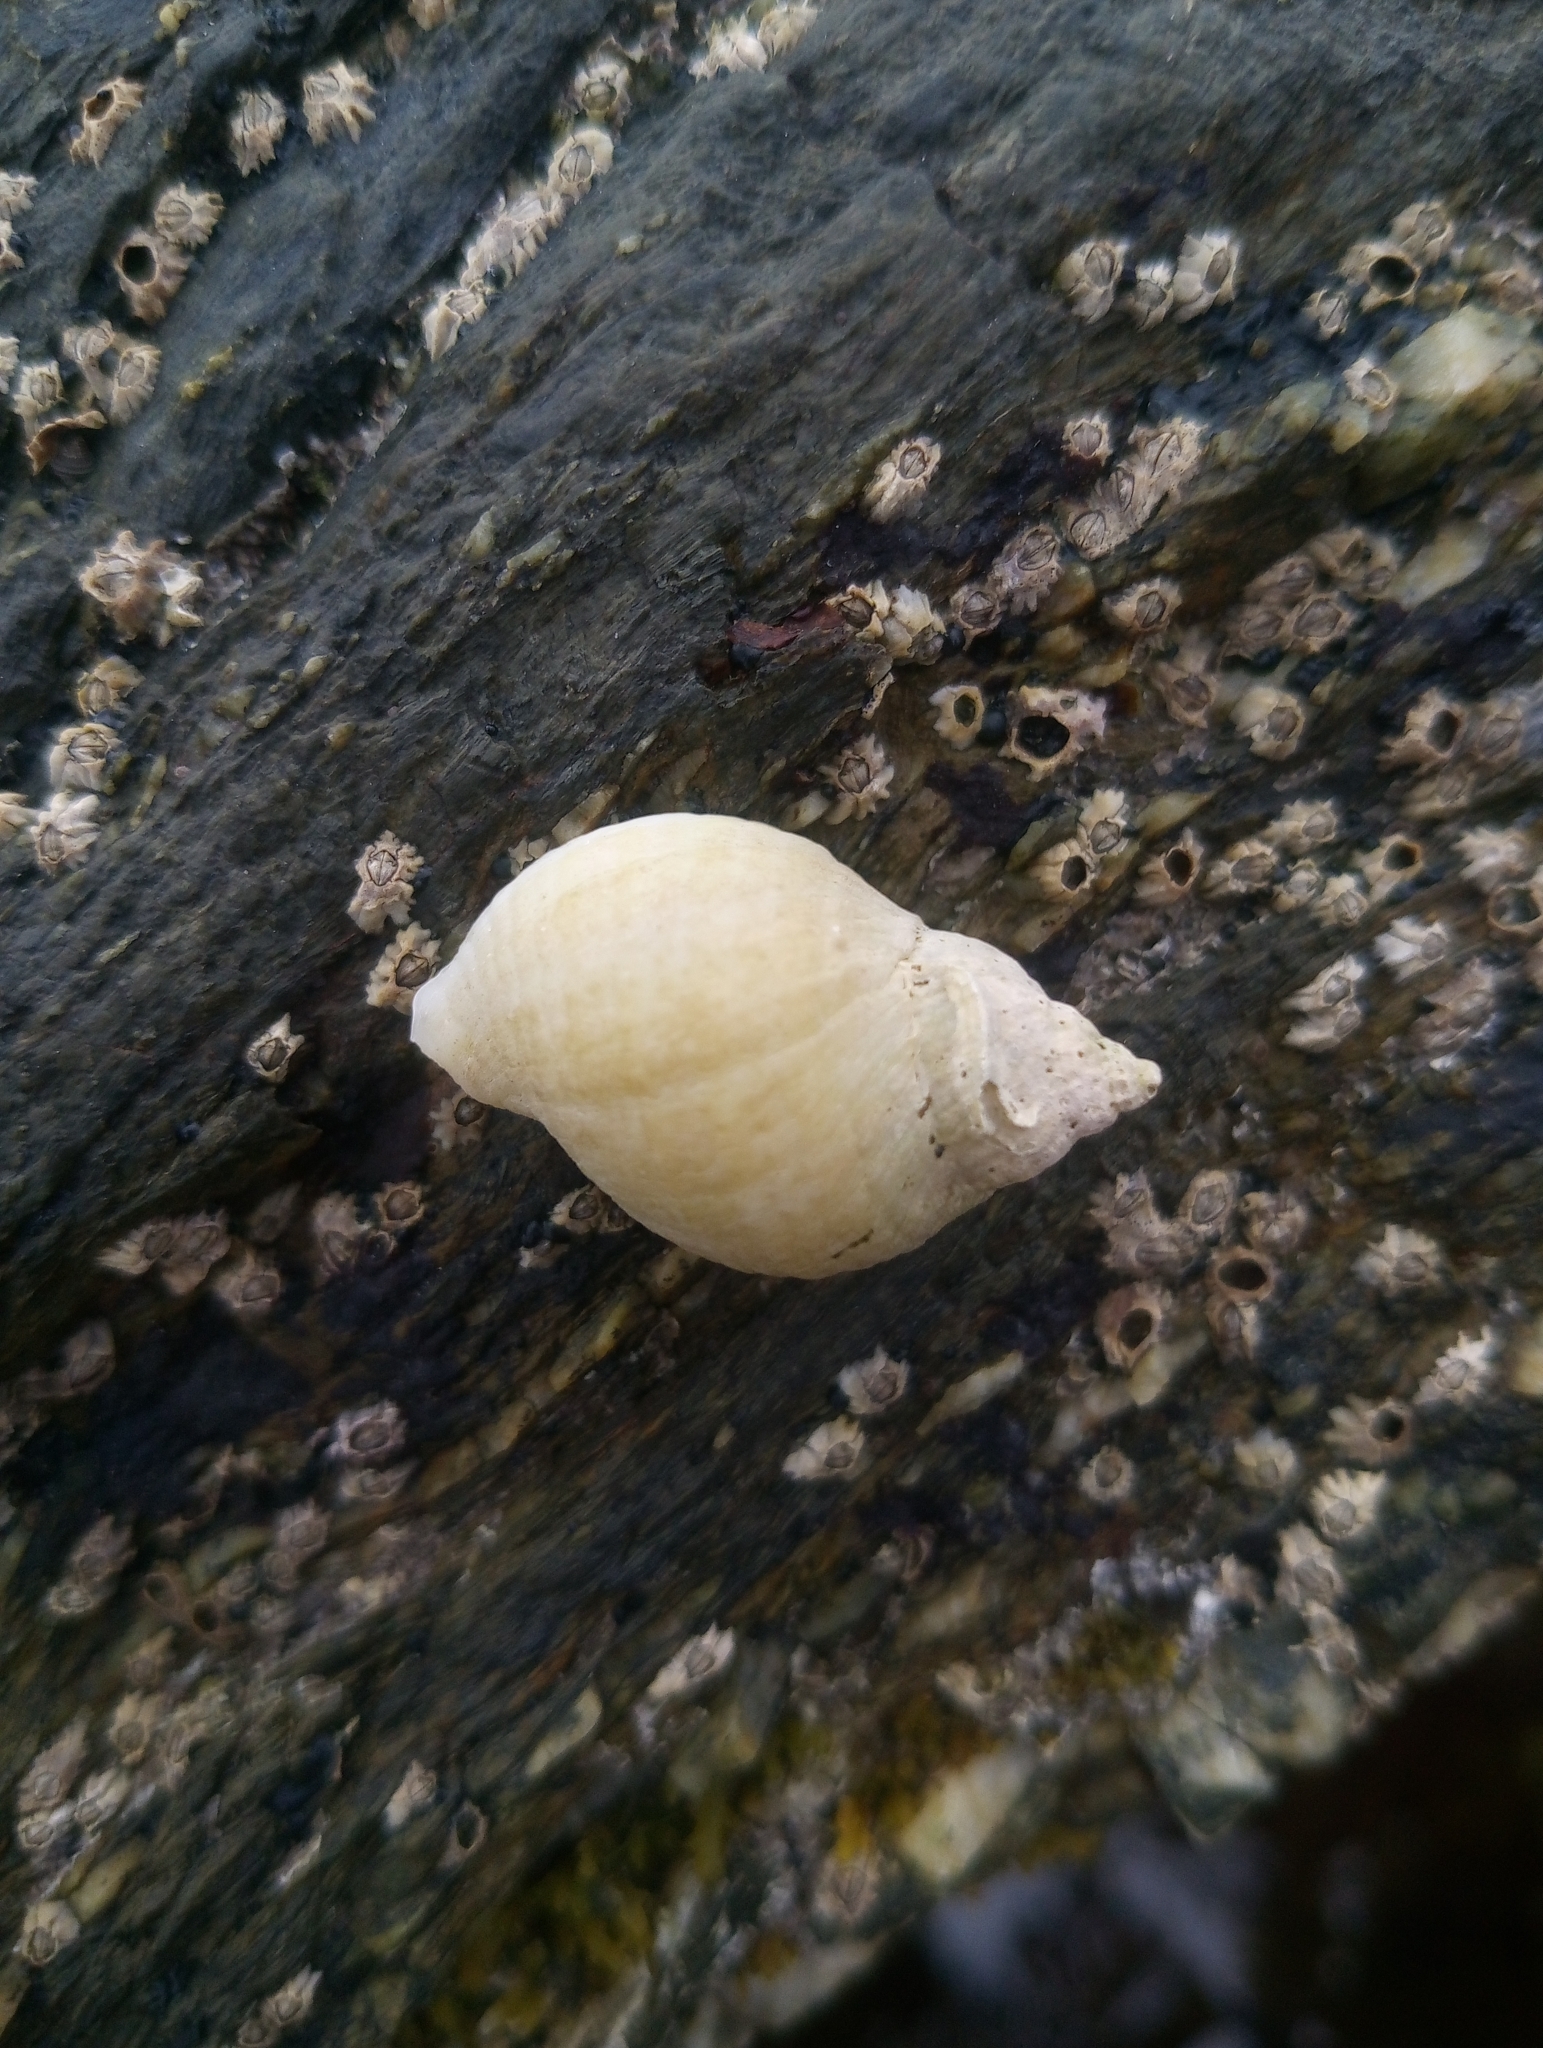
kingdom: Animalia
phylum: Mollusca
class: Gastropoda
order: Neogastropoda
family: Muricidae
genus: Nucella
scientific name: Nucella lapillus
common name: Dog whelk
